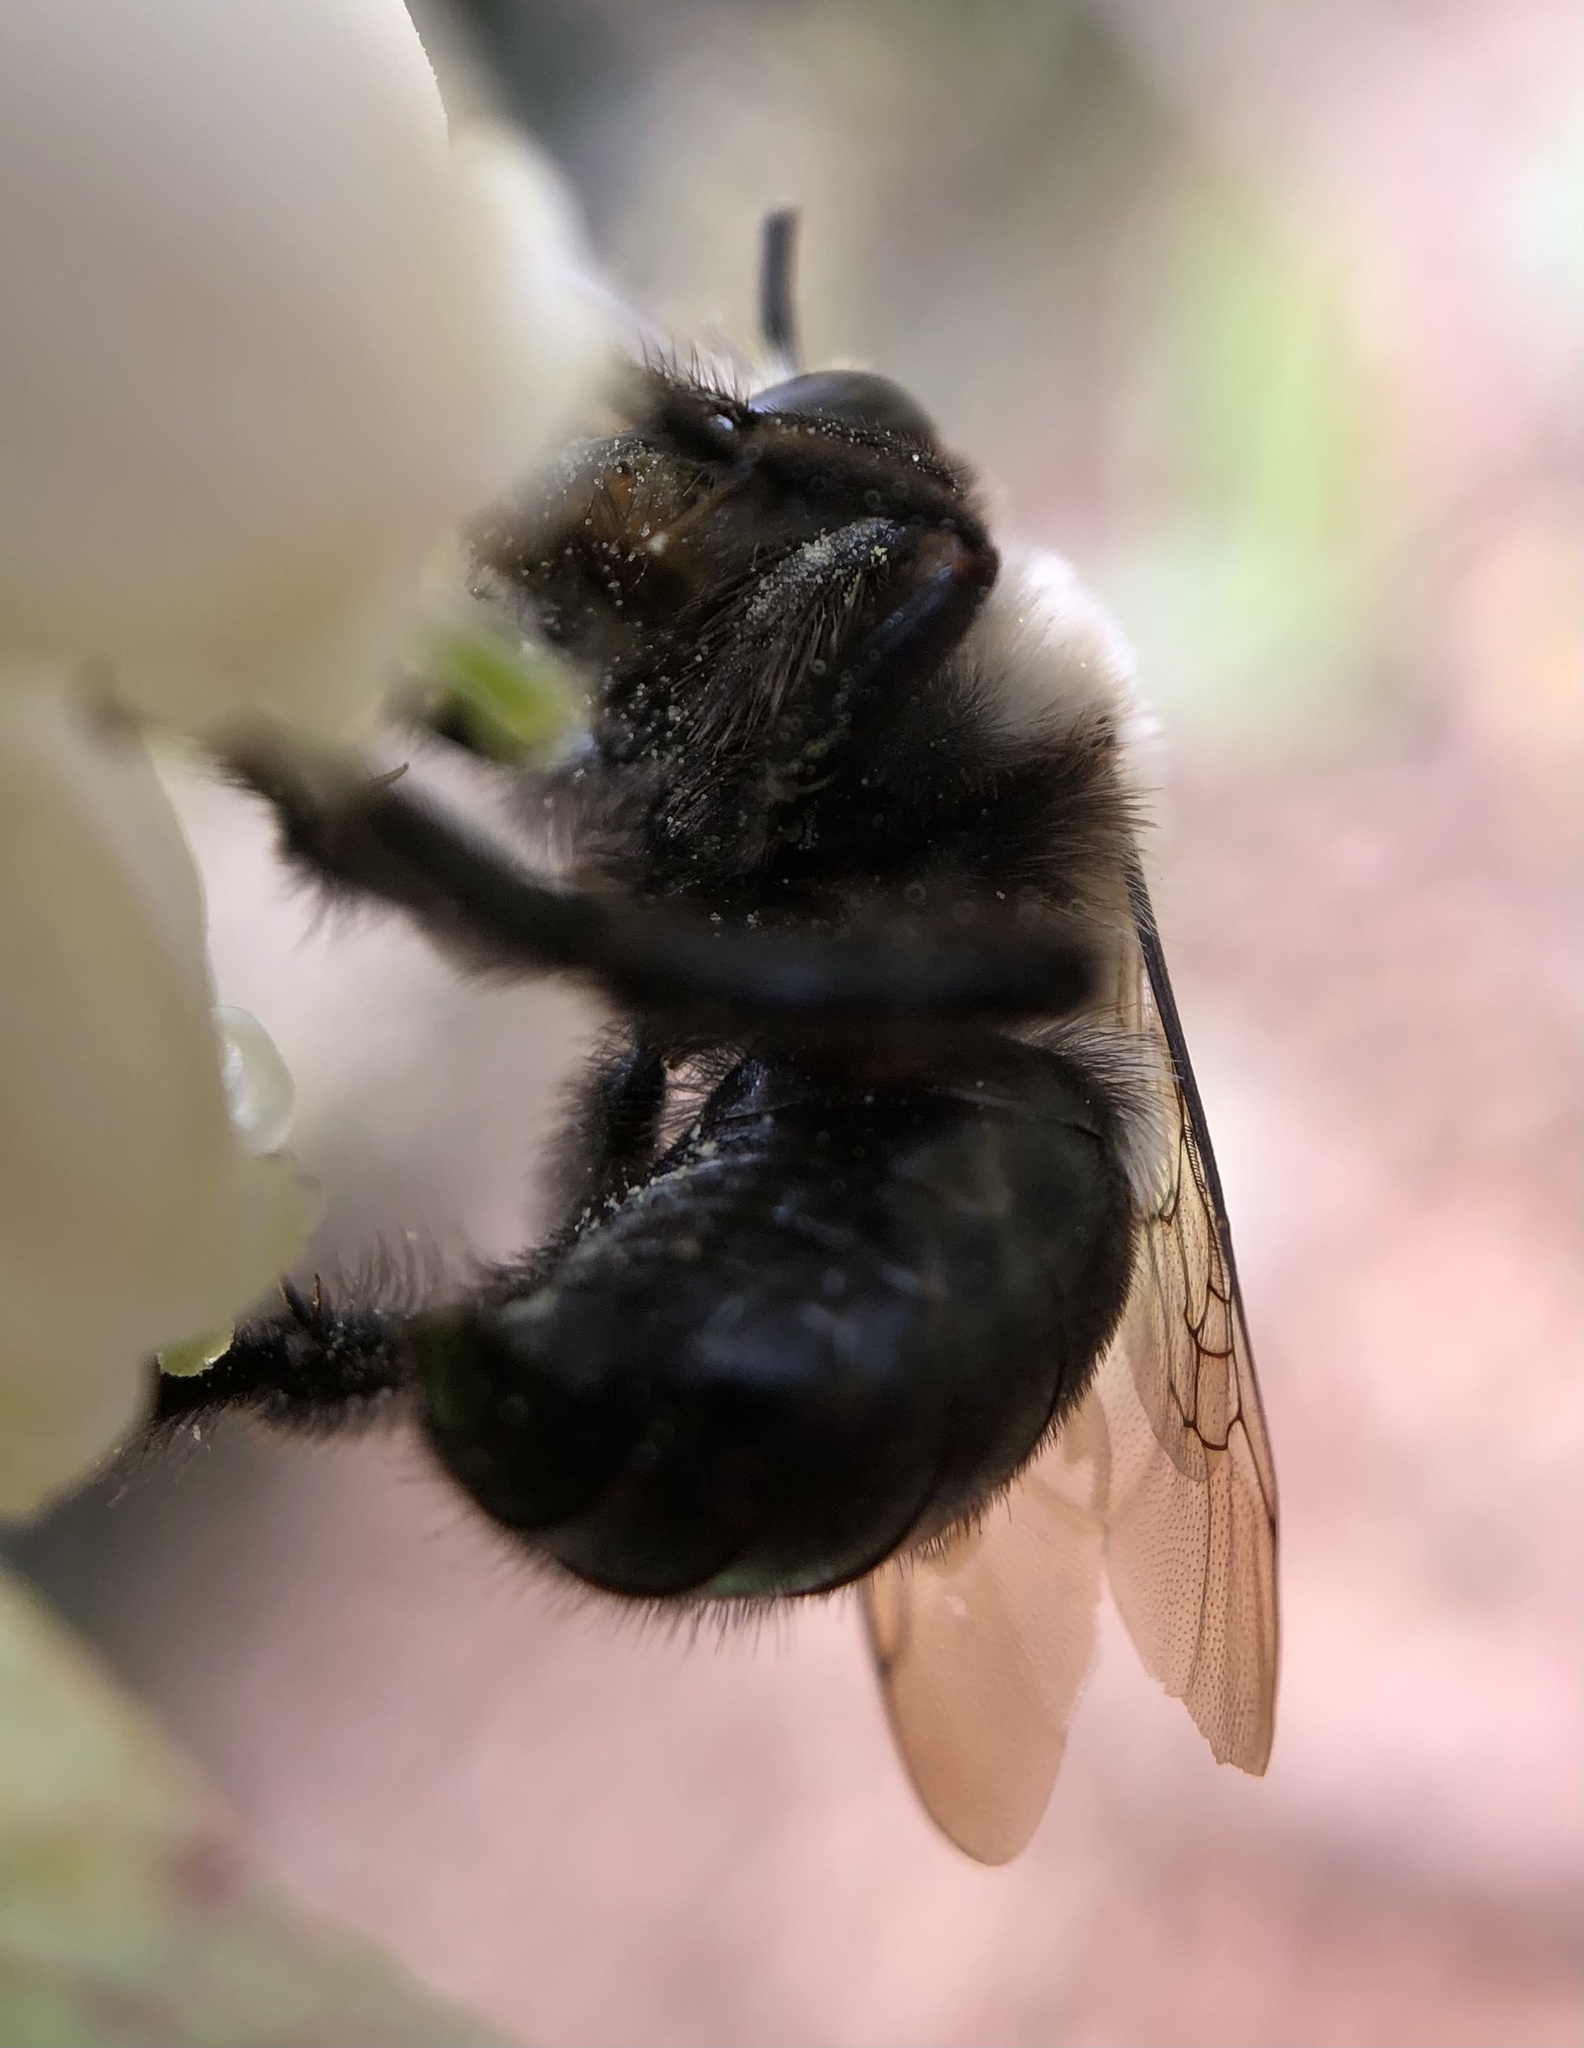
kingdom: Animalia
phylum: Arthropoda
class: Insecta
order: Hymenoptera
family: Apidae
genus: Habropoda
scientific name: Habropoda laboriosa
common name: Southeastern blueberry bee
